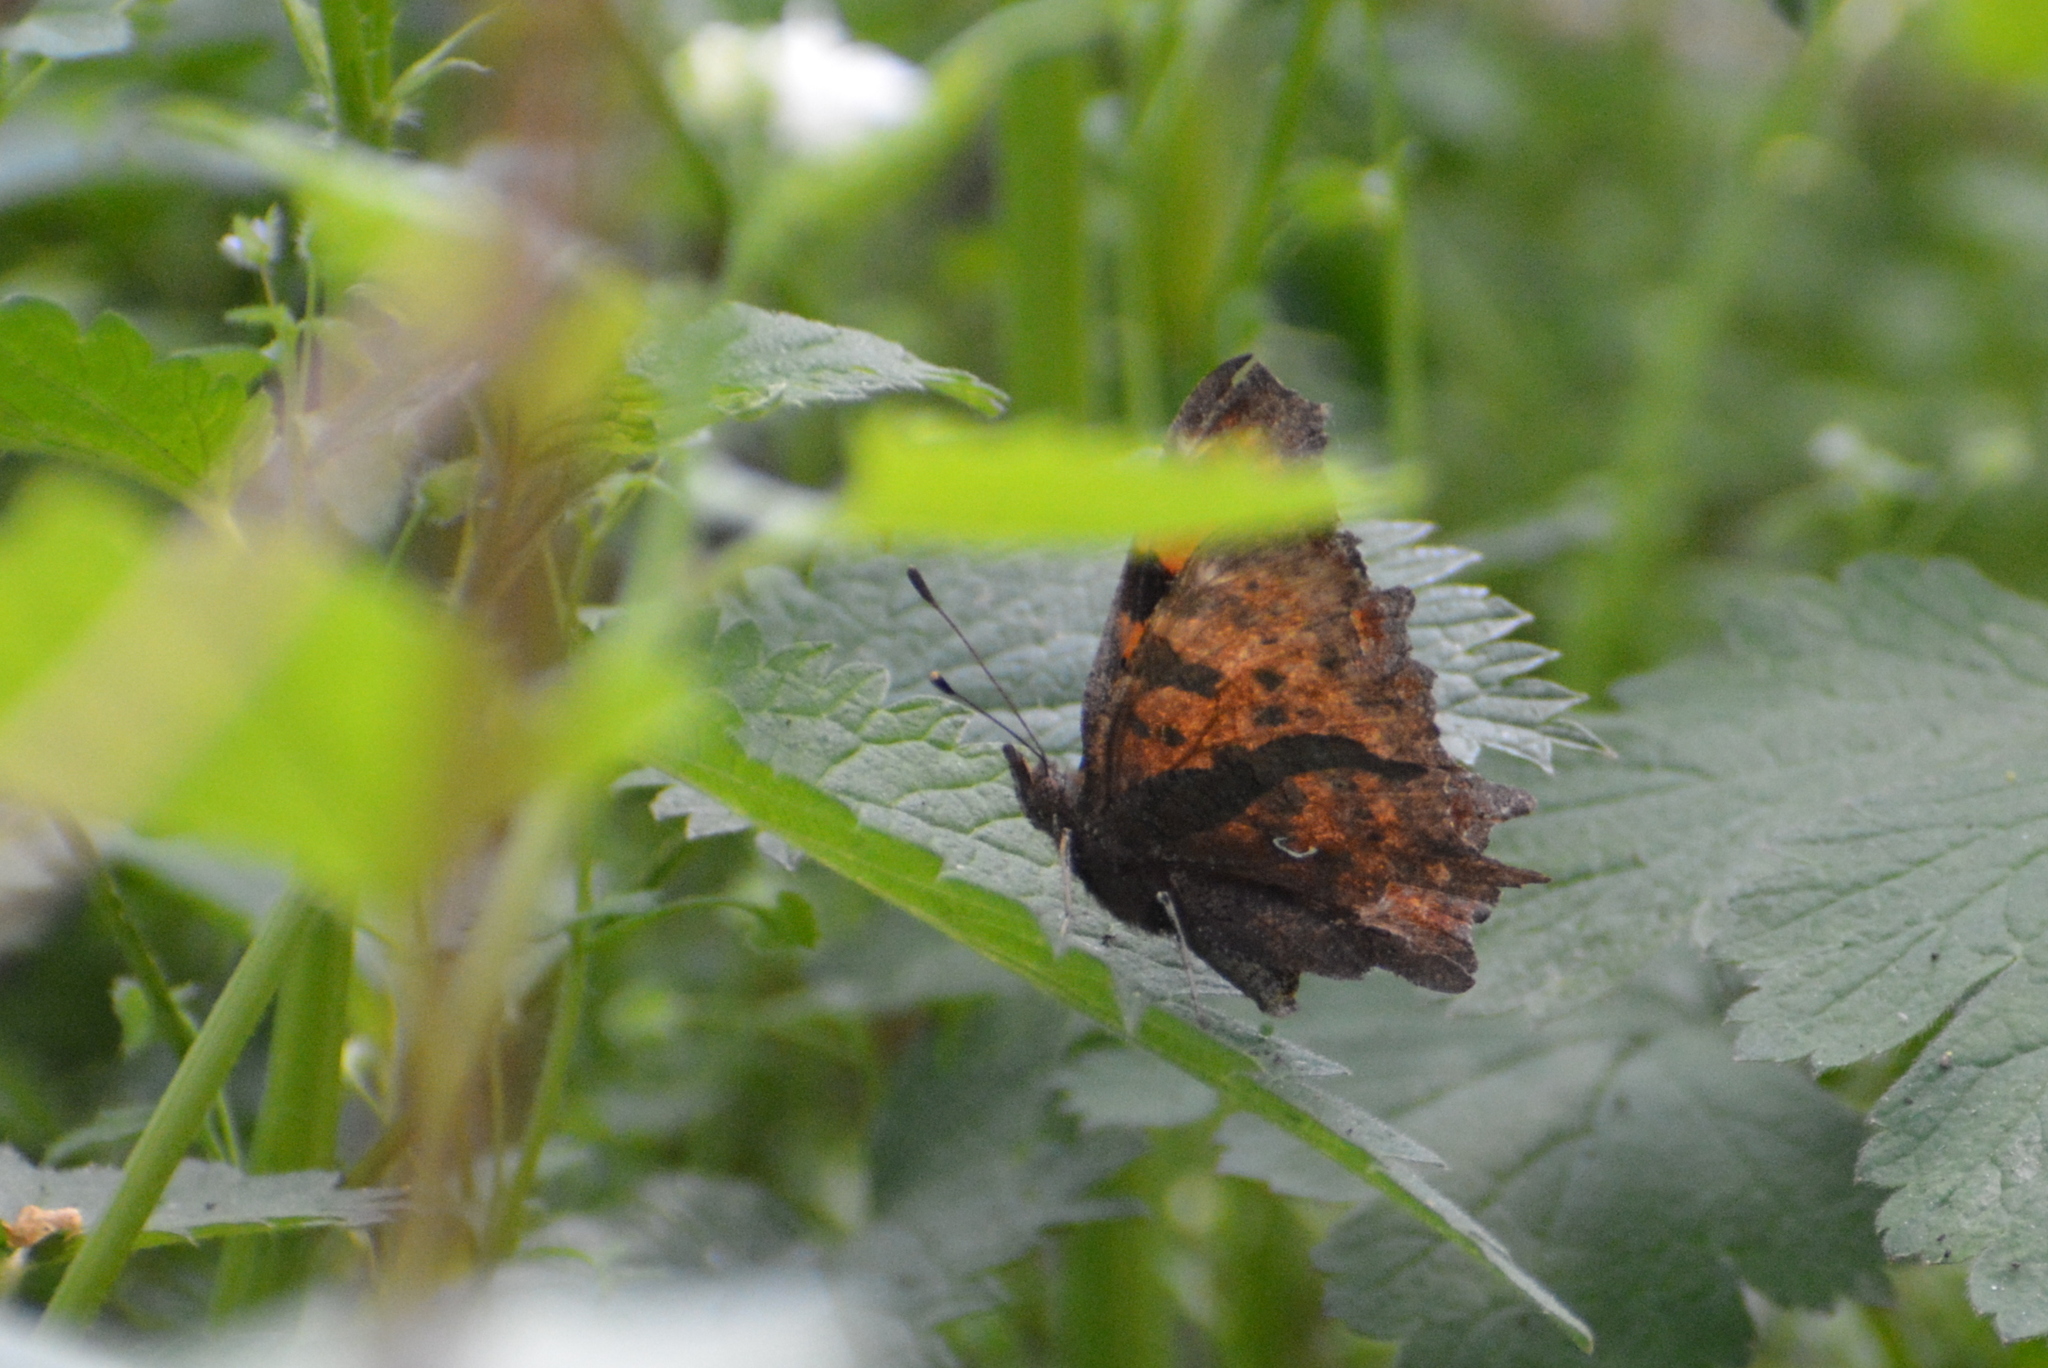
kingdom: Animalia
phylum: Arthropoda
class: Insecta
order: Lepidoptera
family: Nymphalidae
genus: Polygonia
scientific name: Polygonia c-album
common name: Comma
